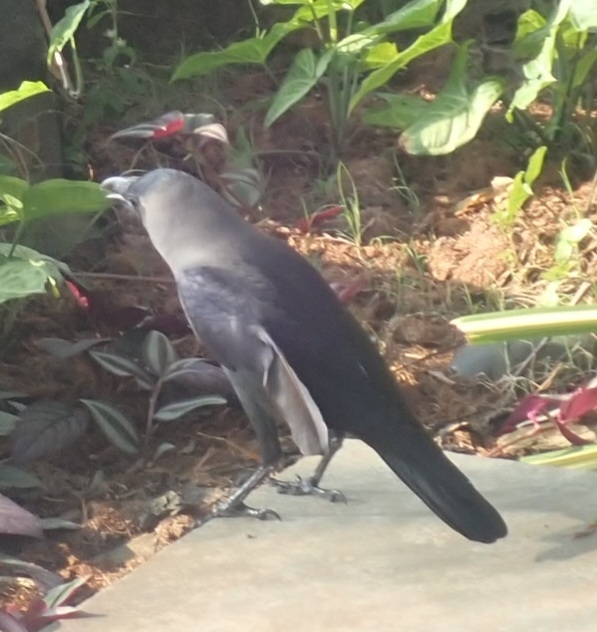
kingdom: Animalia
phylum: Chordata
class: Aves
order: Passeriformes
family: Corvidae
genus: Corvus
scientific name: Corvus splendens
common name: House crow
